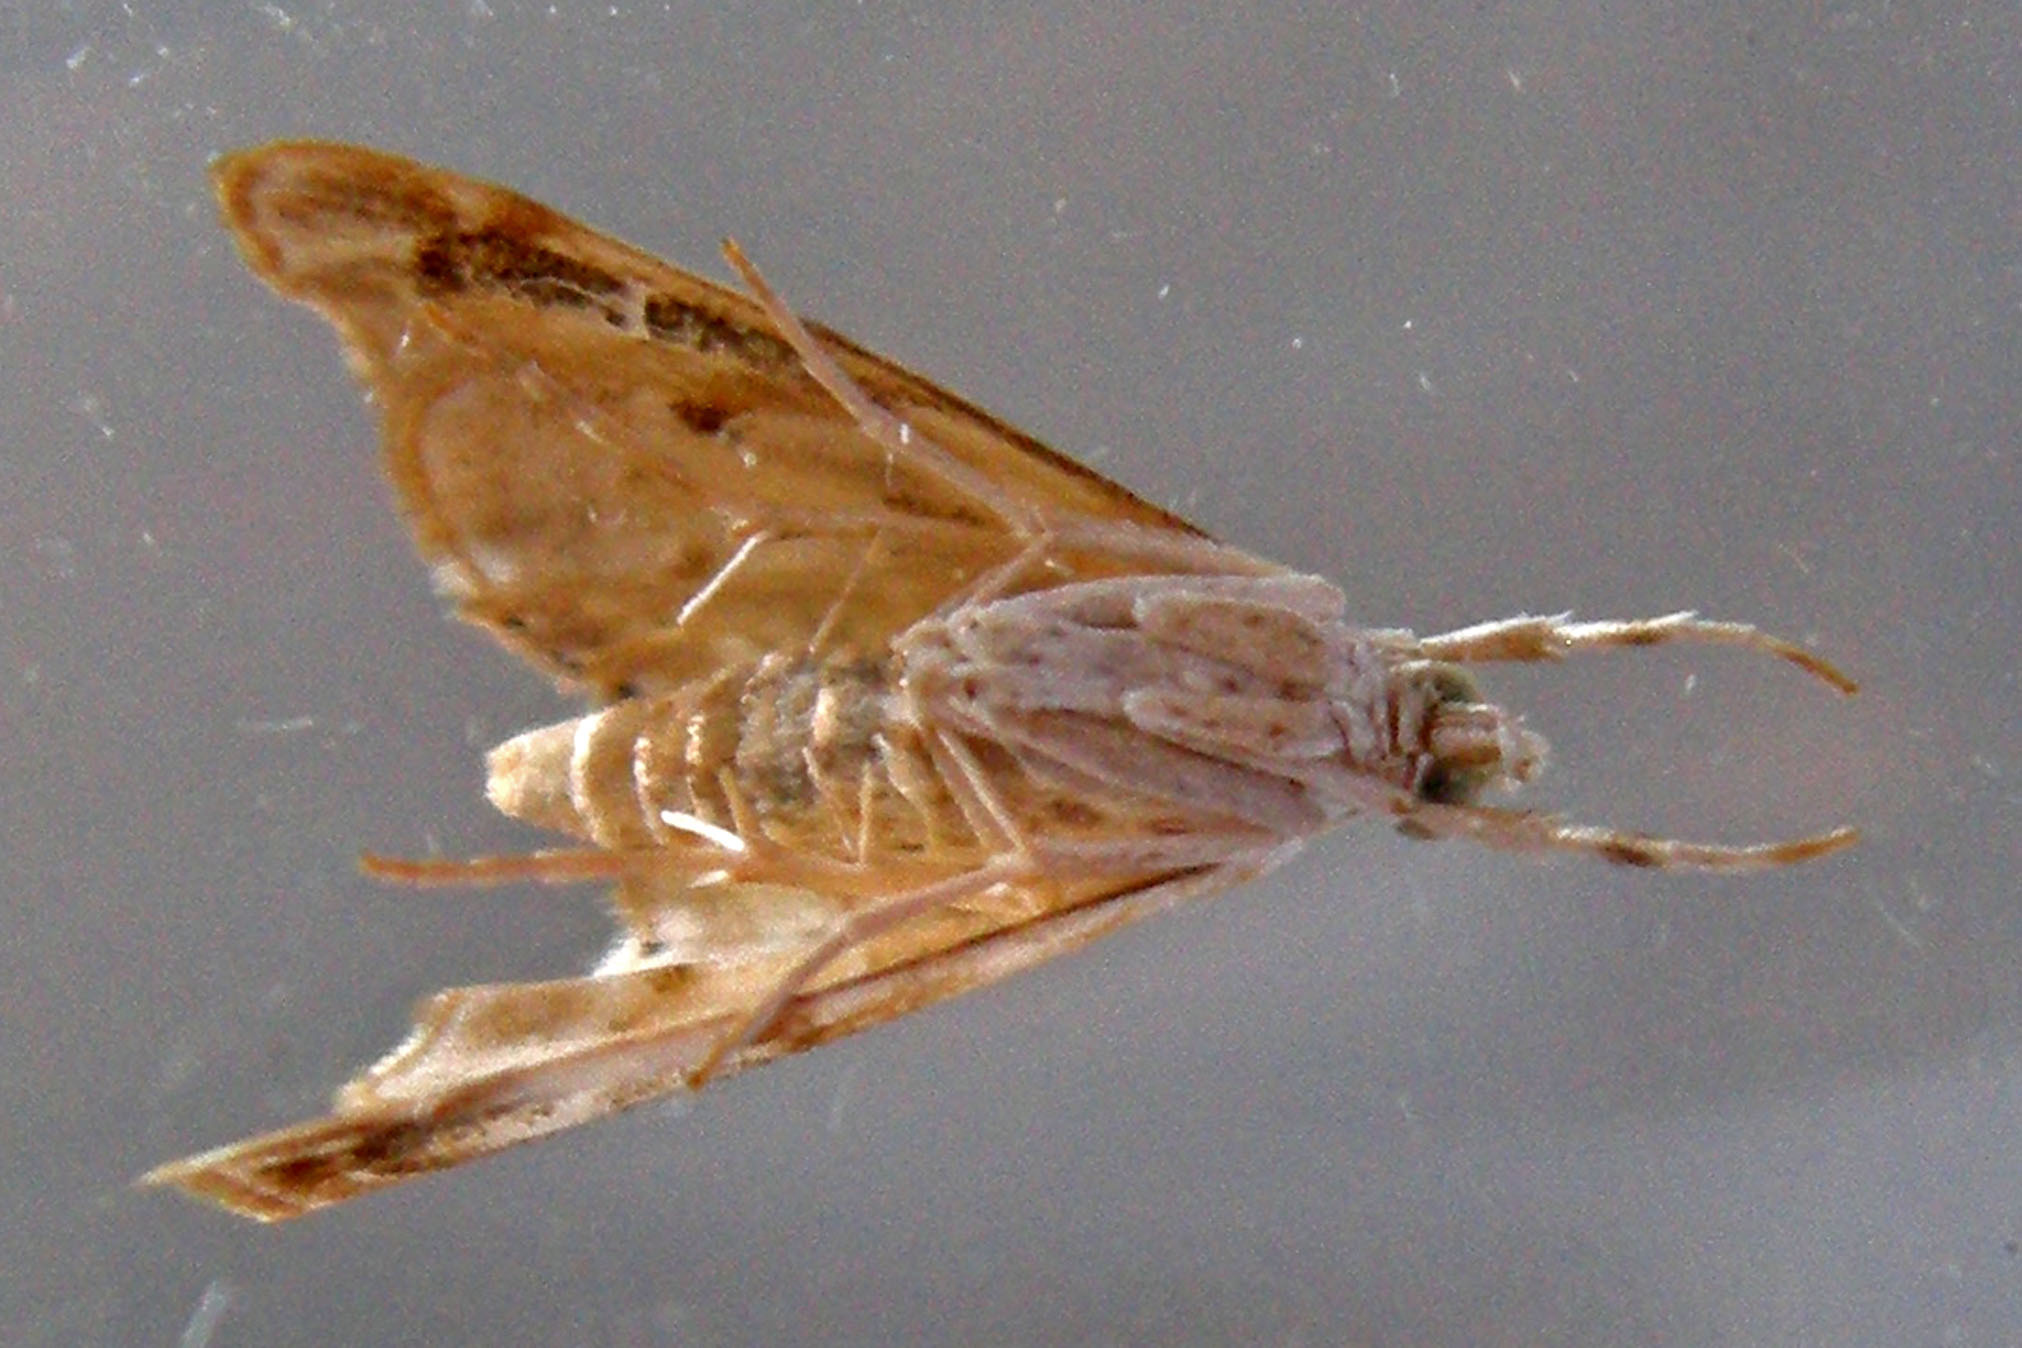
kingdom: Animalia
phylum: Arthropoda
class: Insecta
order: Lepidoptera
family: Crambidae
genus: Dicymolomia
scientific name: Dicymolomia julianalis
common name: Julia's dicymolomia moth
